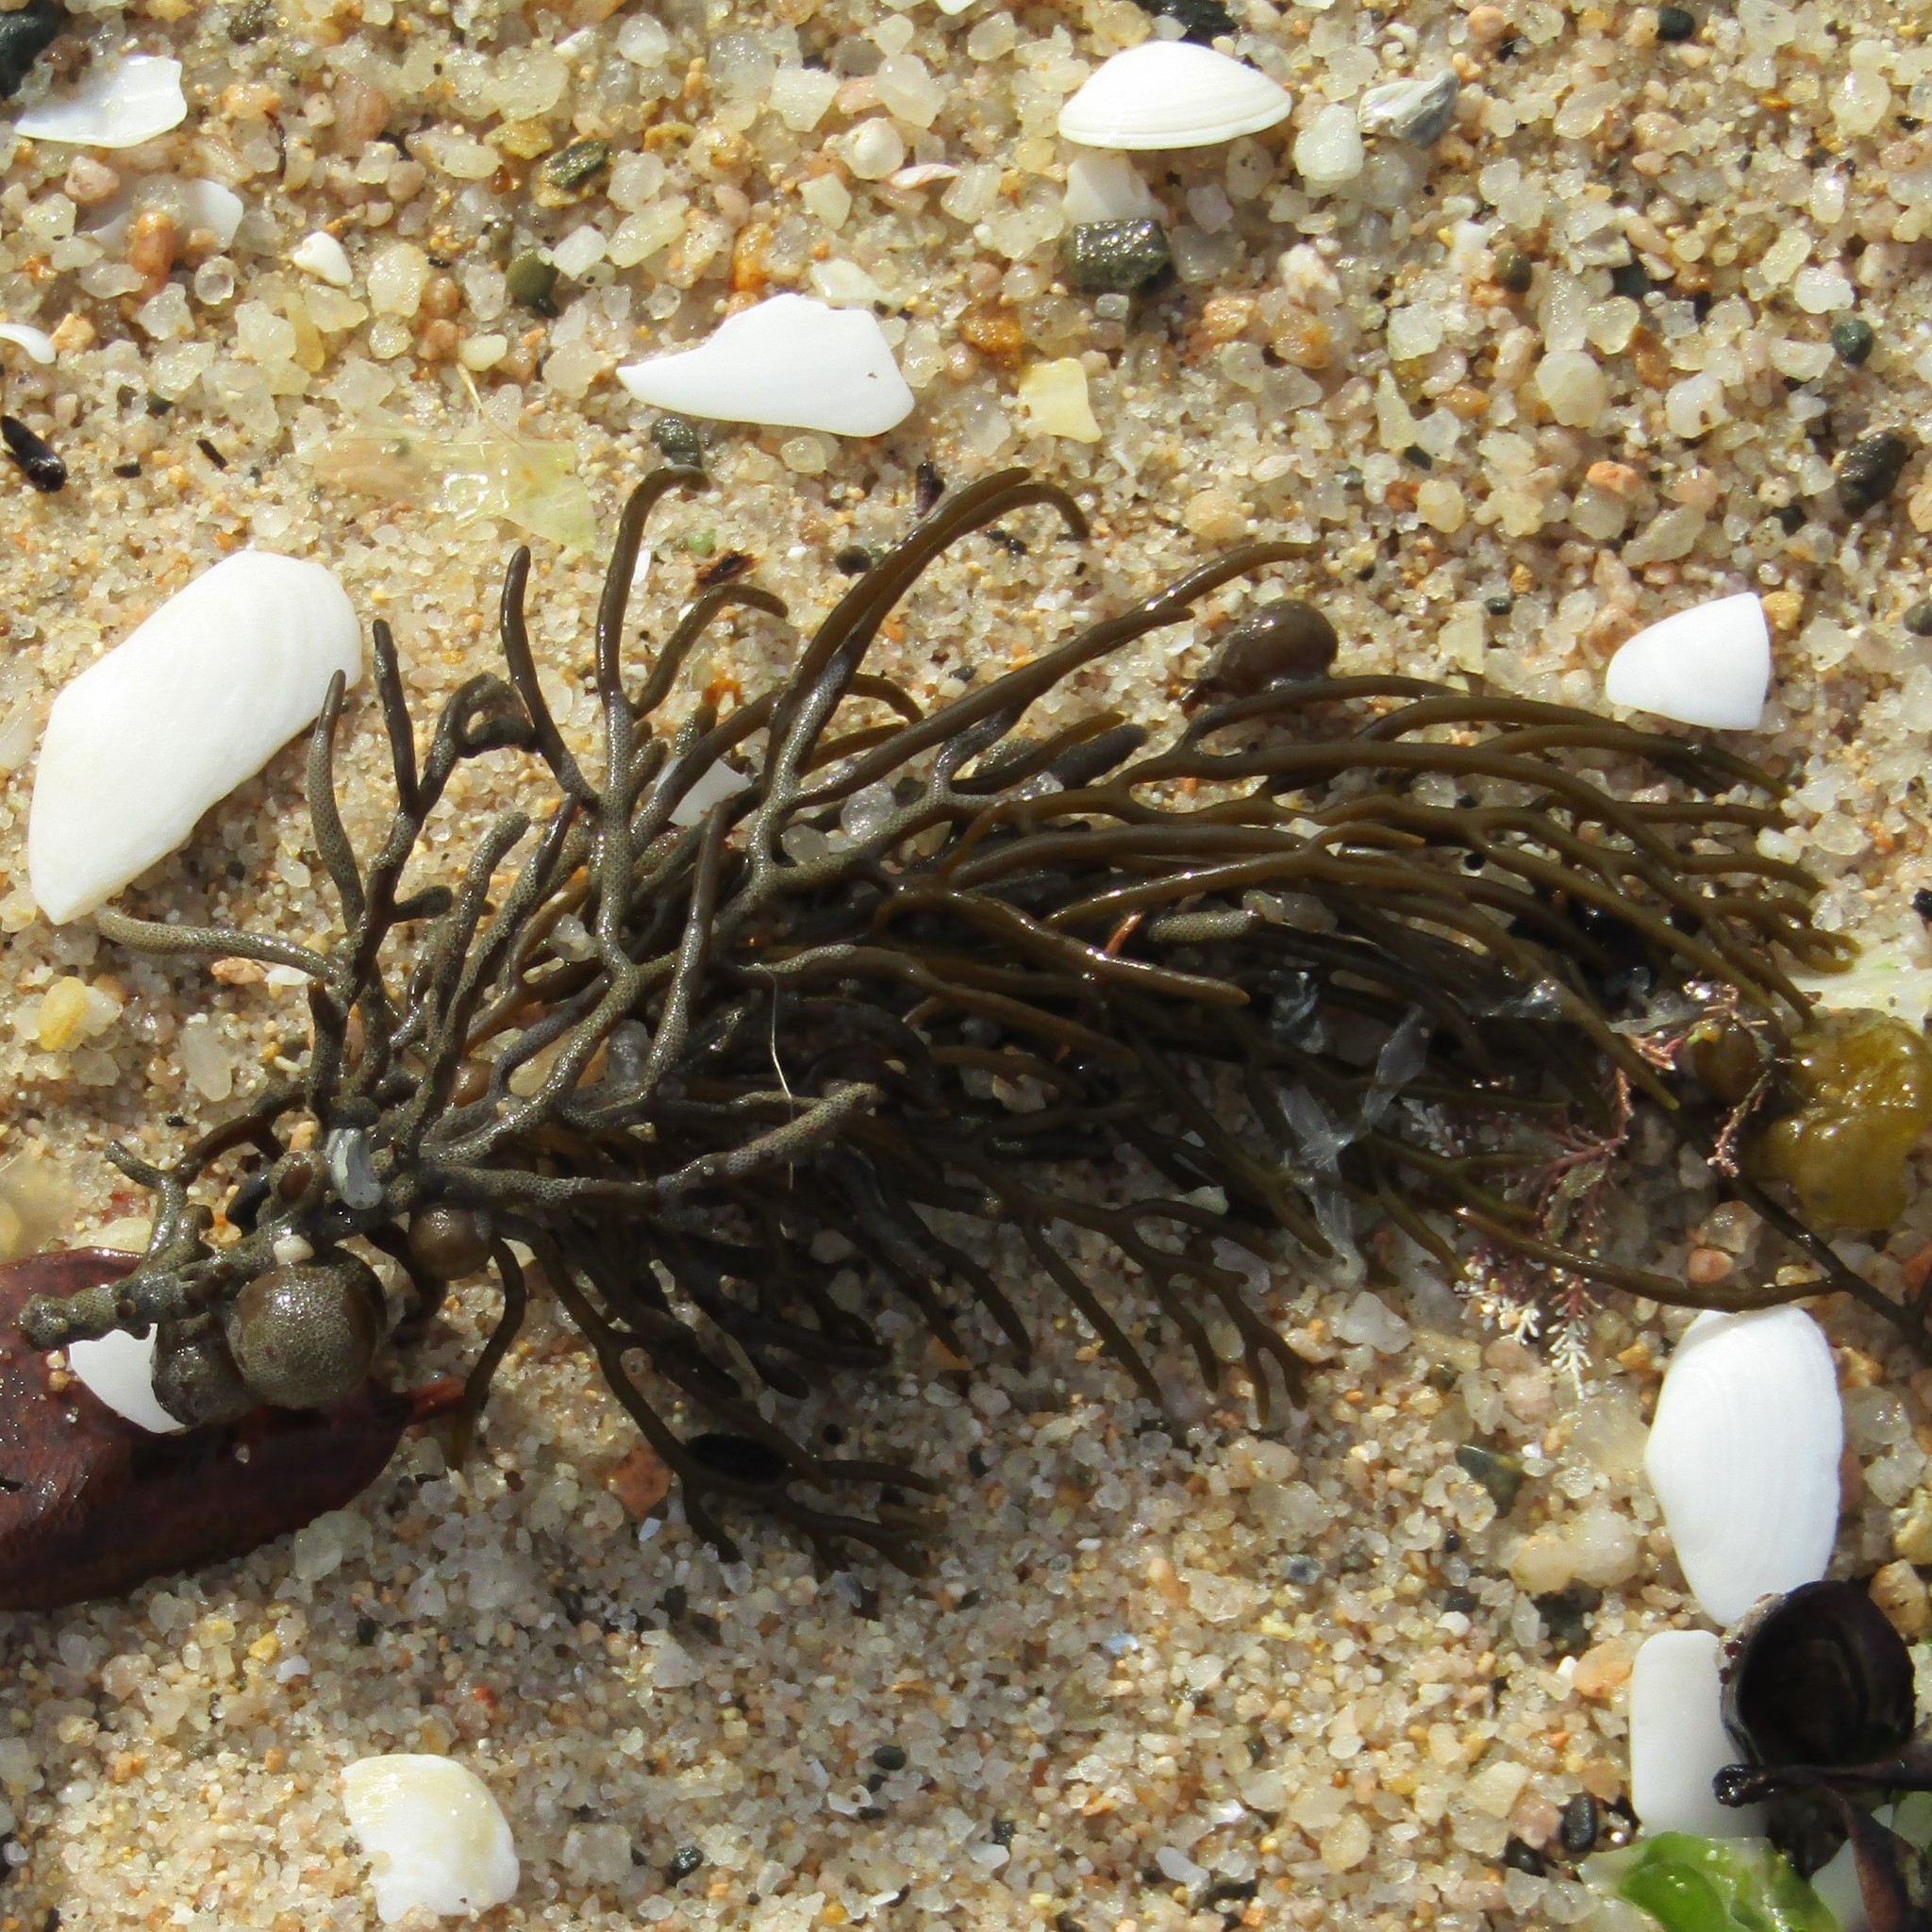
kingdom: Chromista
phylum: Ochrophyta
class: Phaeophyceae
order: Fucales
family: Sargassaceae
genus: Cystophora
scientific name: Cystophora retroflexa
